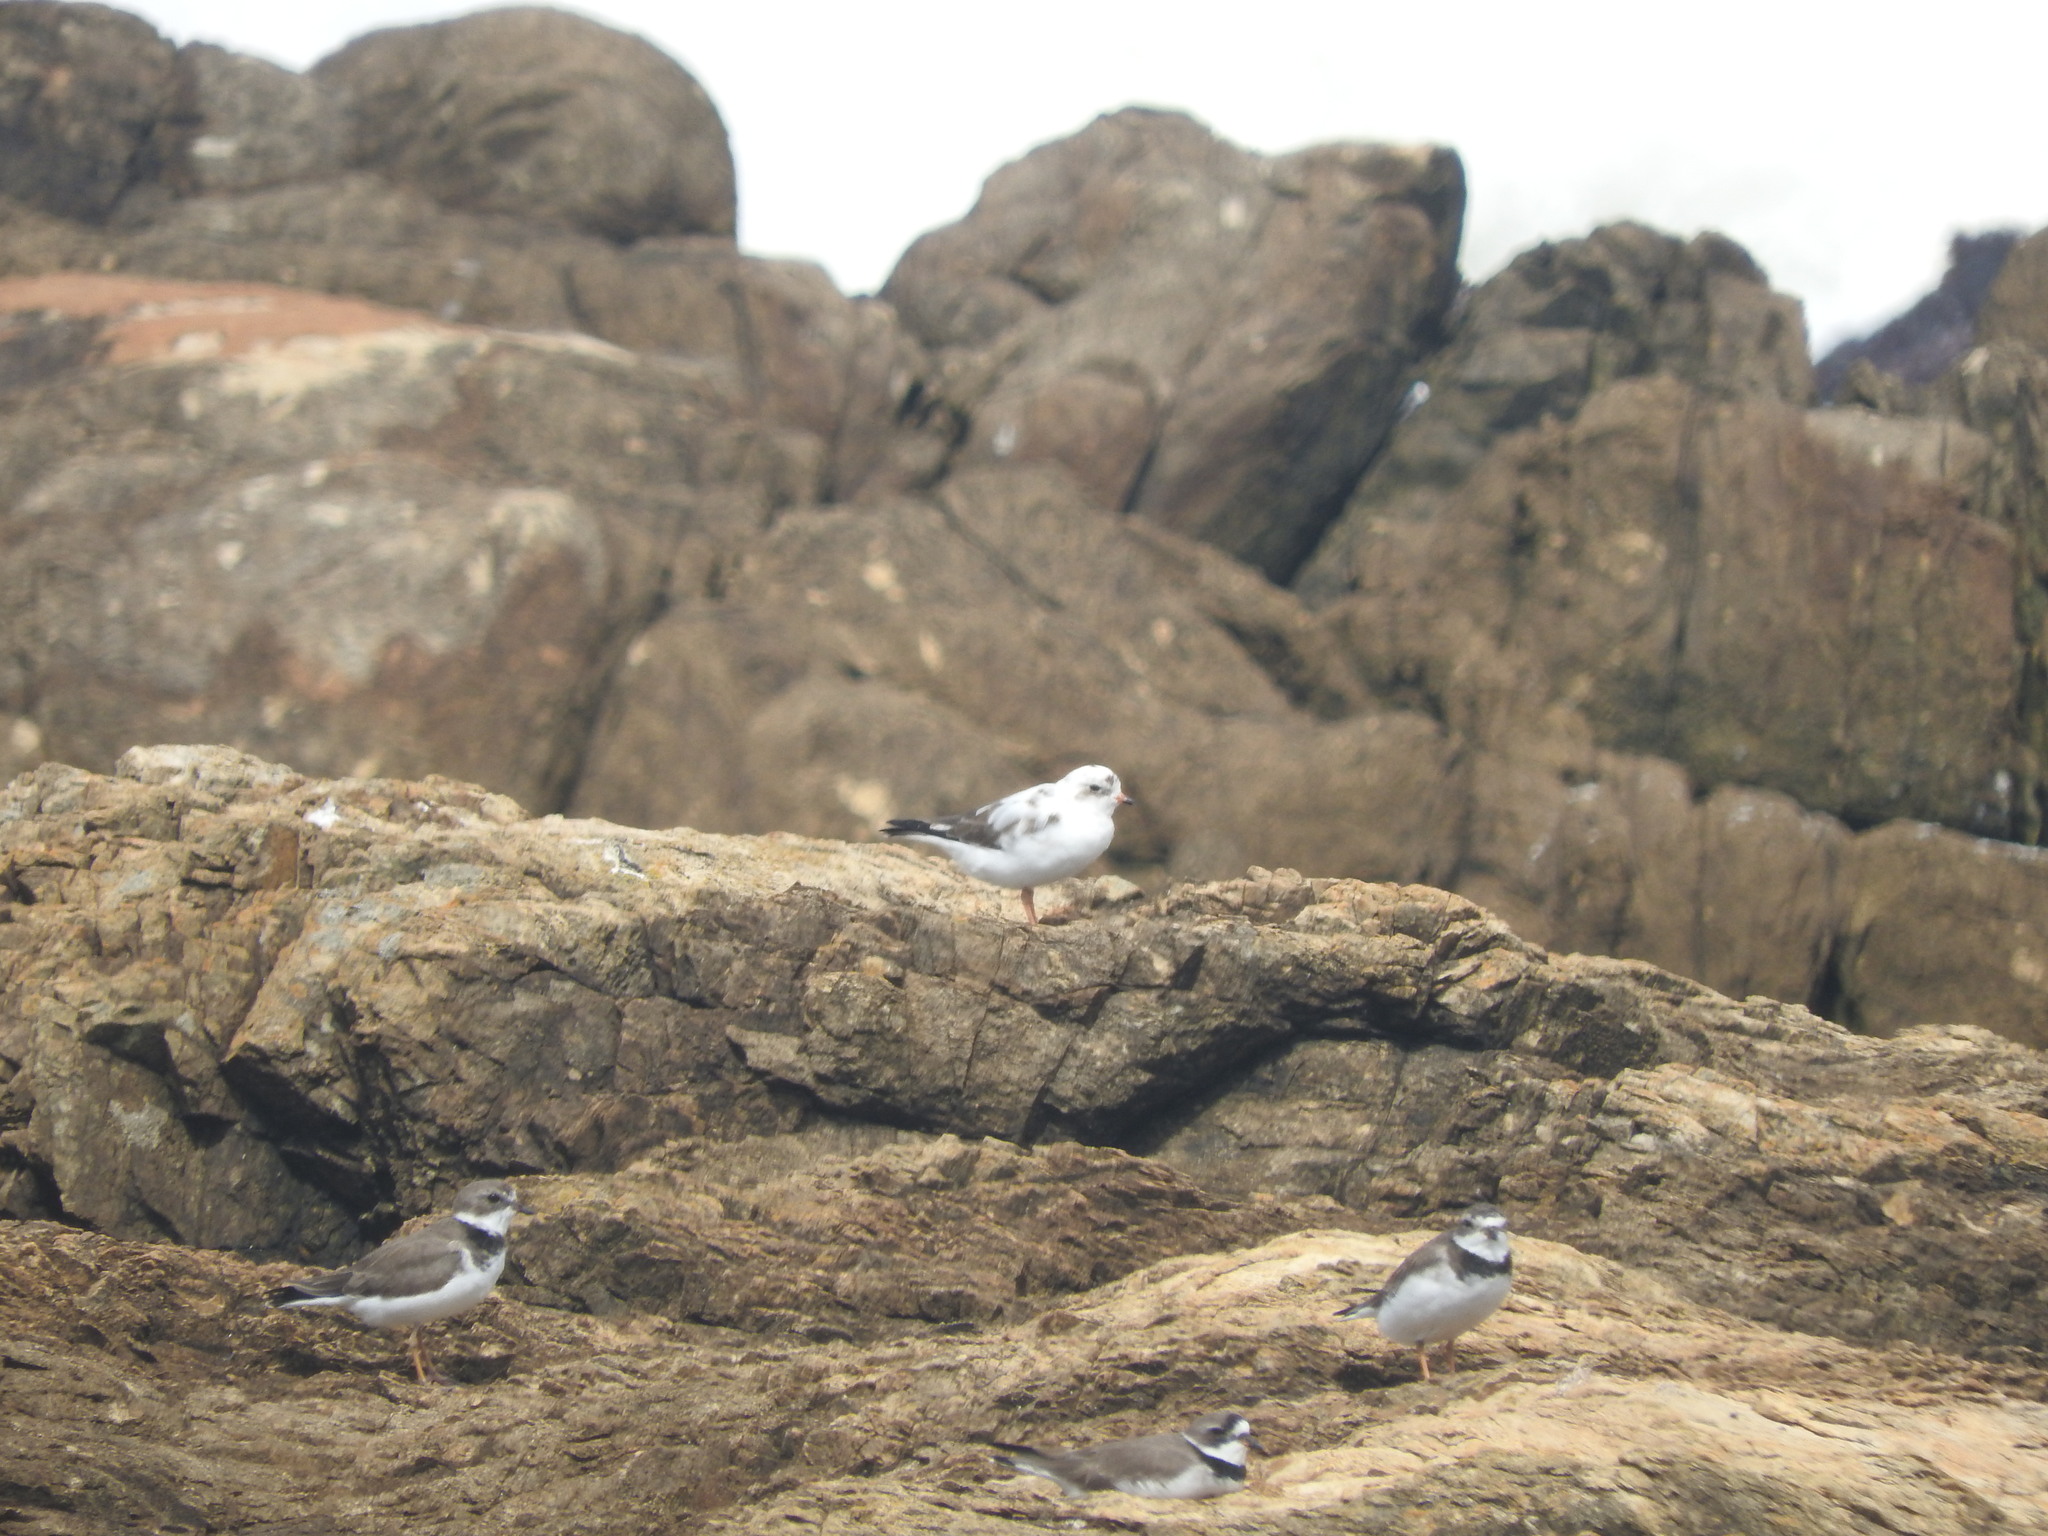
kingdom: Animalia
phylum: Chordata
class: Aves
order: Charadriiformes
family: Charadriidae
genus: Charadrius
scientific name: Charadrius semipalmatus
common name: Semipalmated plover
